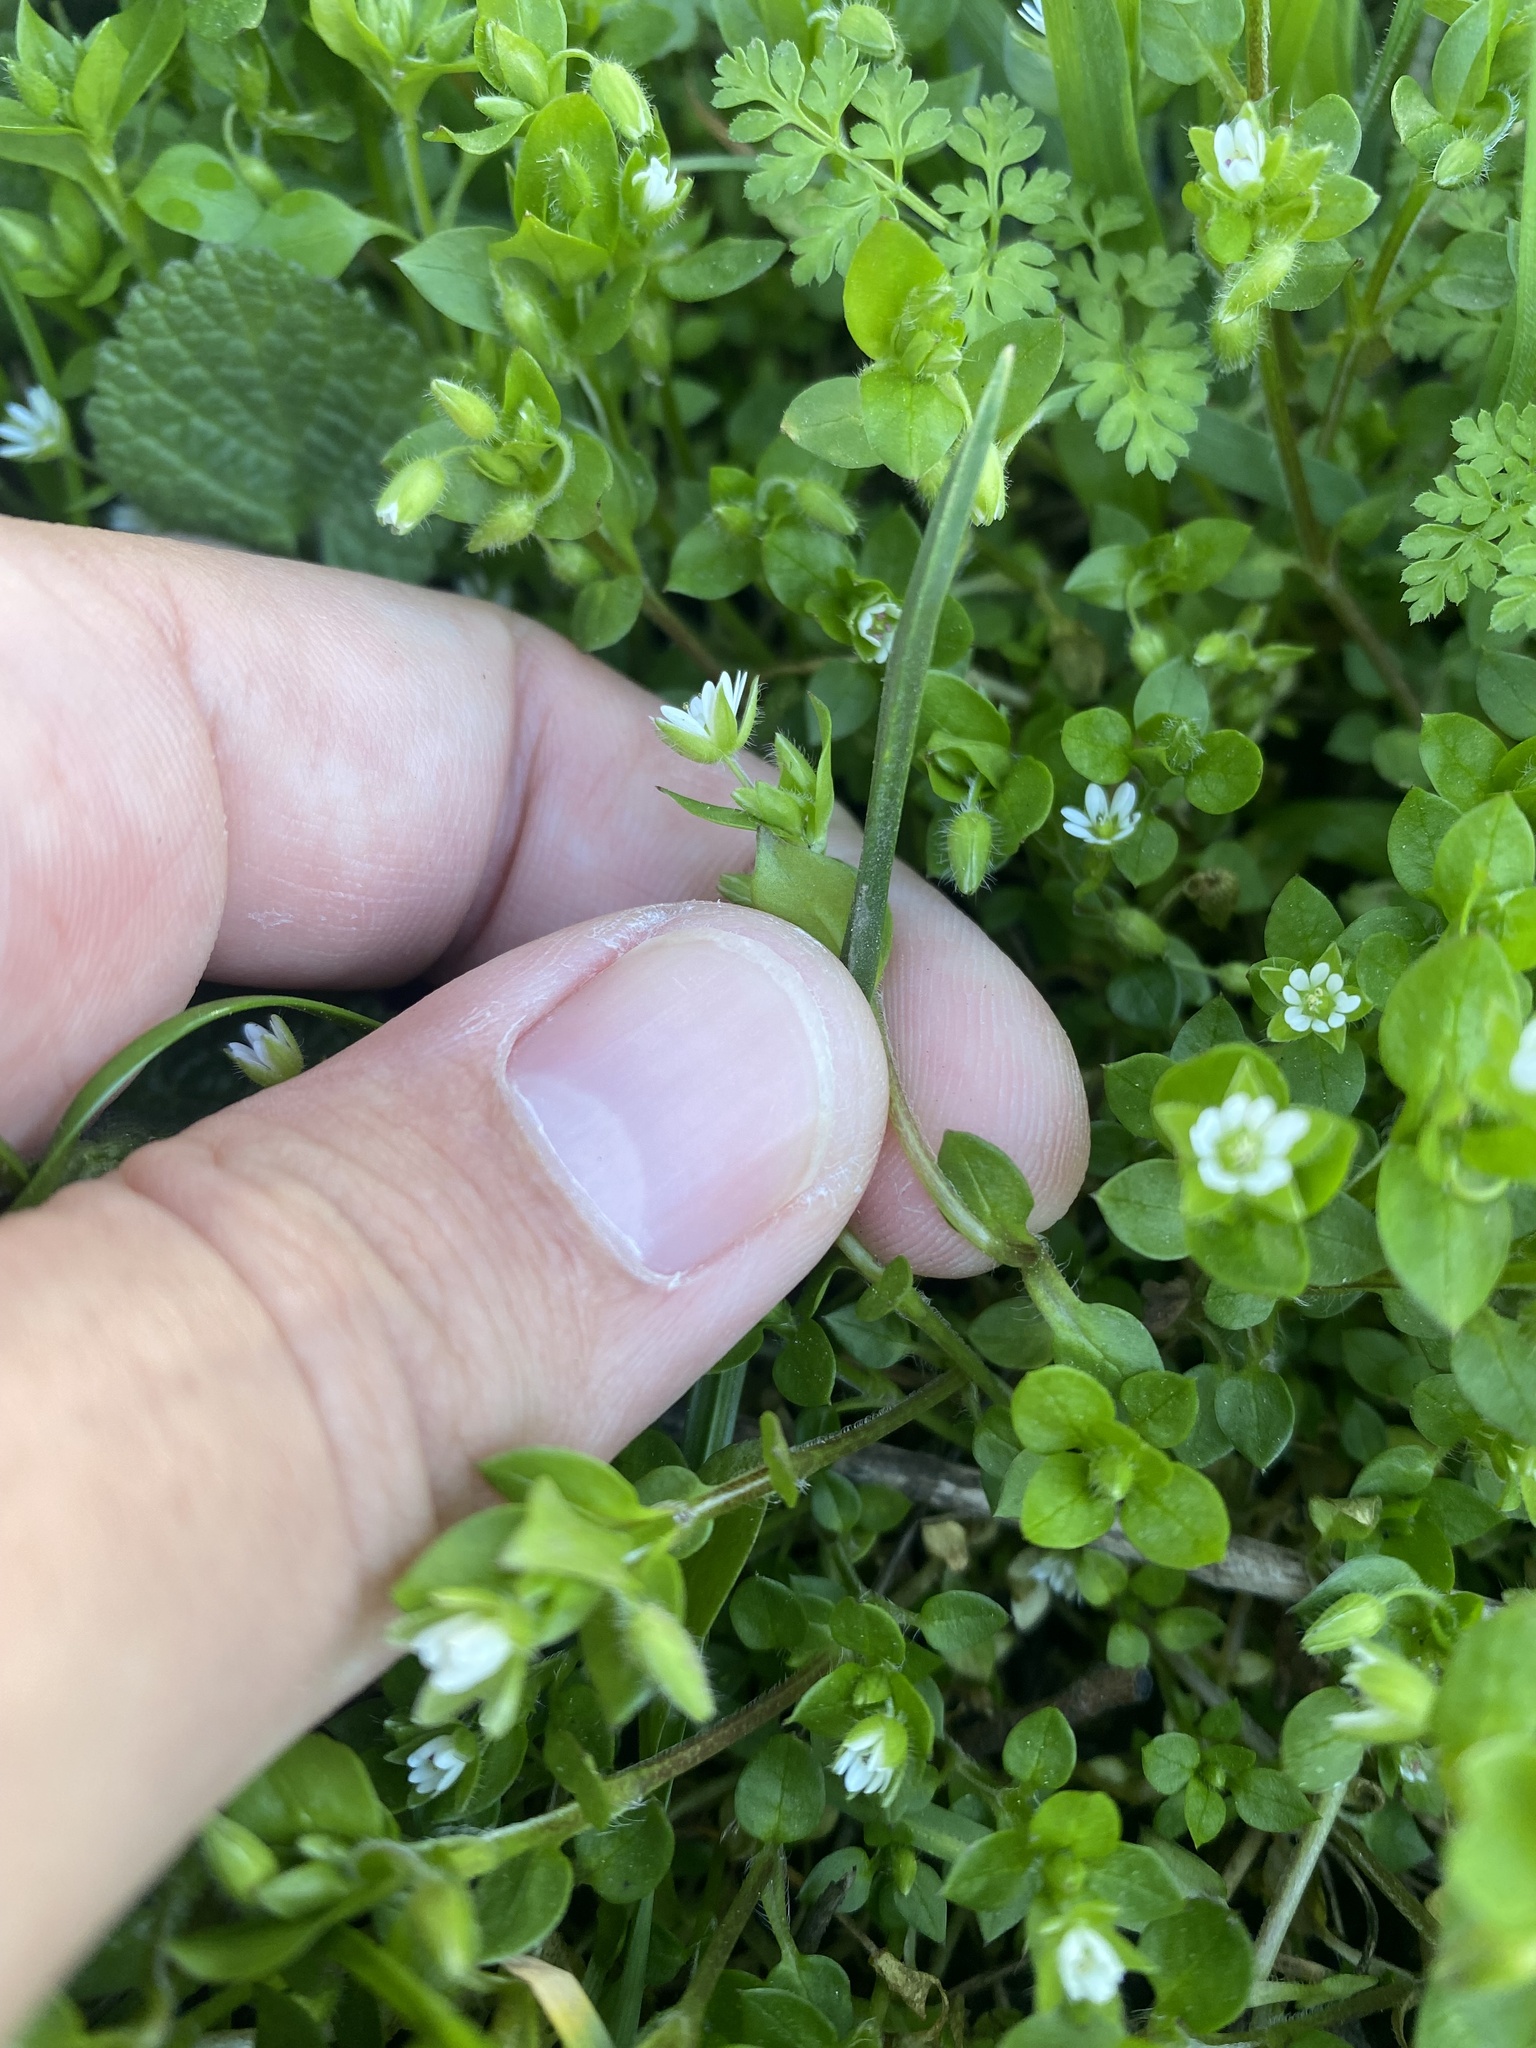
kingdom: Plantae
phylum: Tracheophyta
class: Magnoliopsida
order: Caryophyllales
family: Caryophyllaceae
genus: Stellaria
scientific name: Stellaria media
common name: Common chickweed
